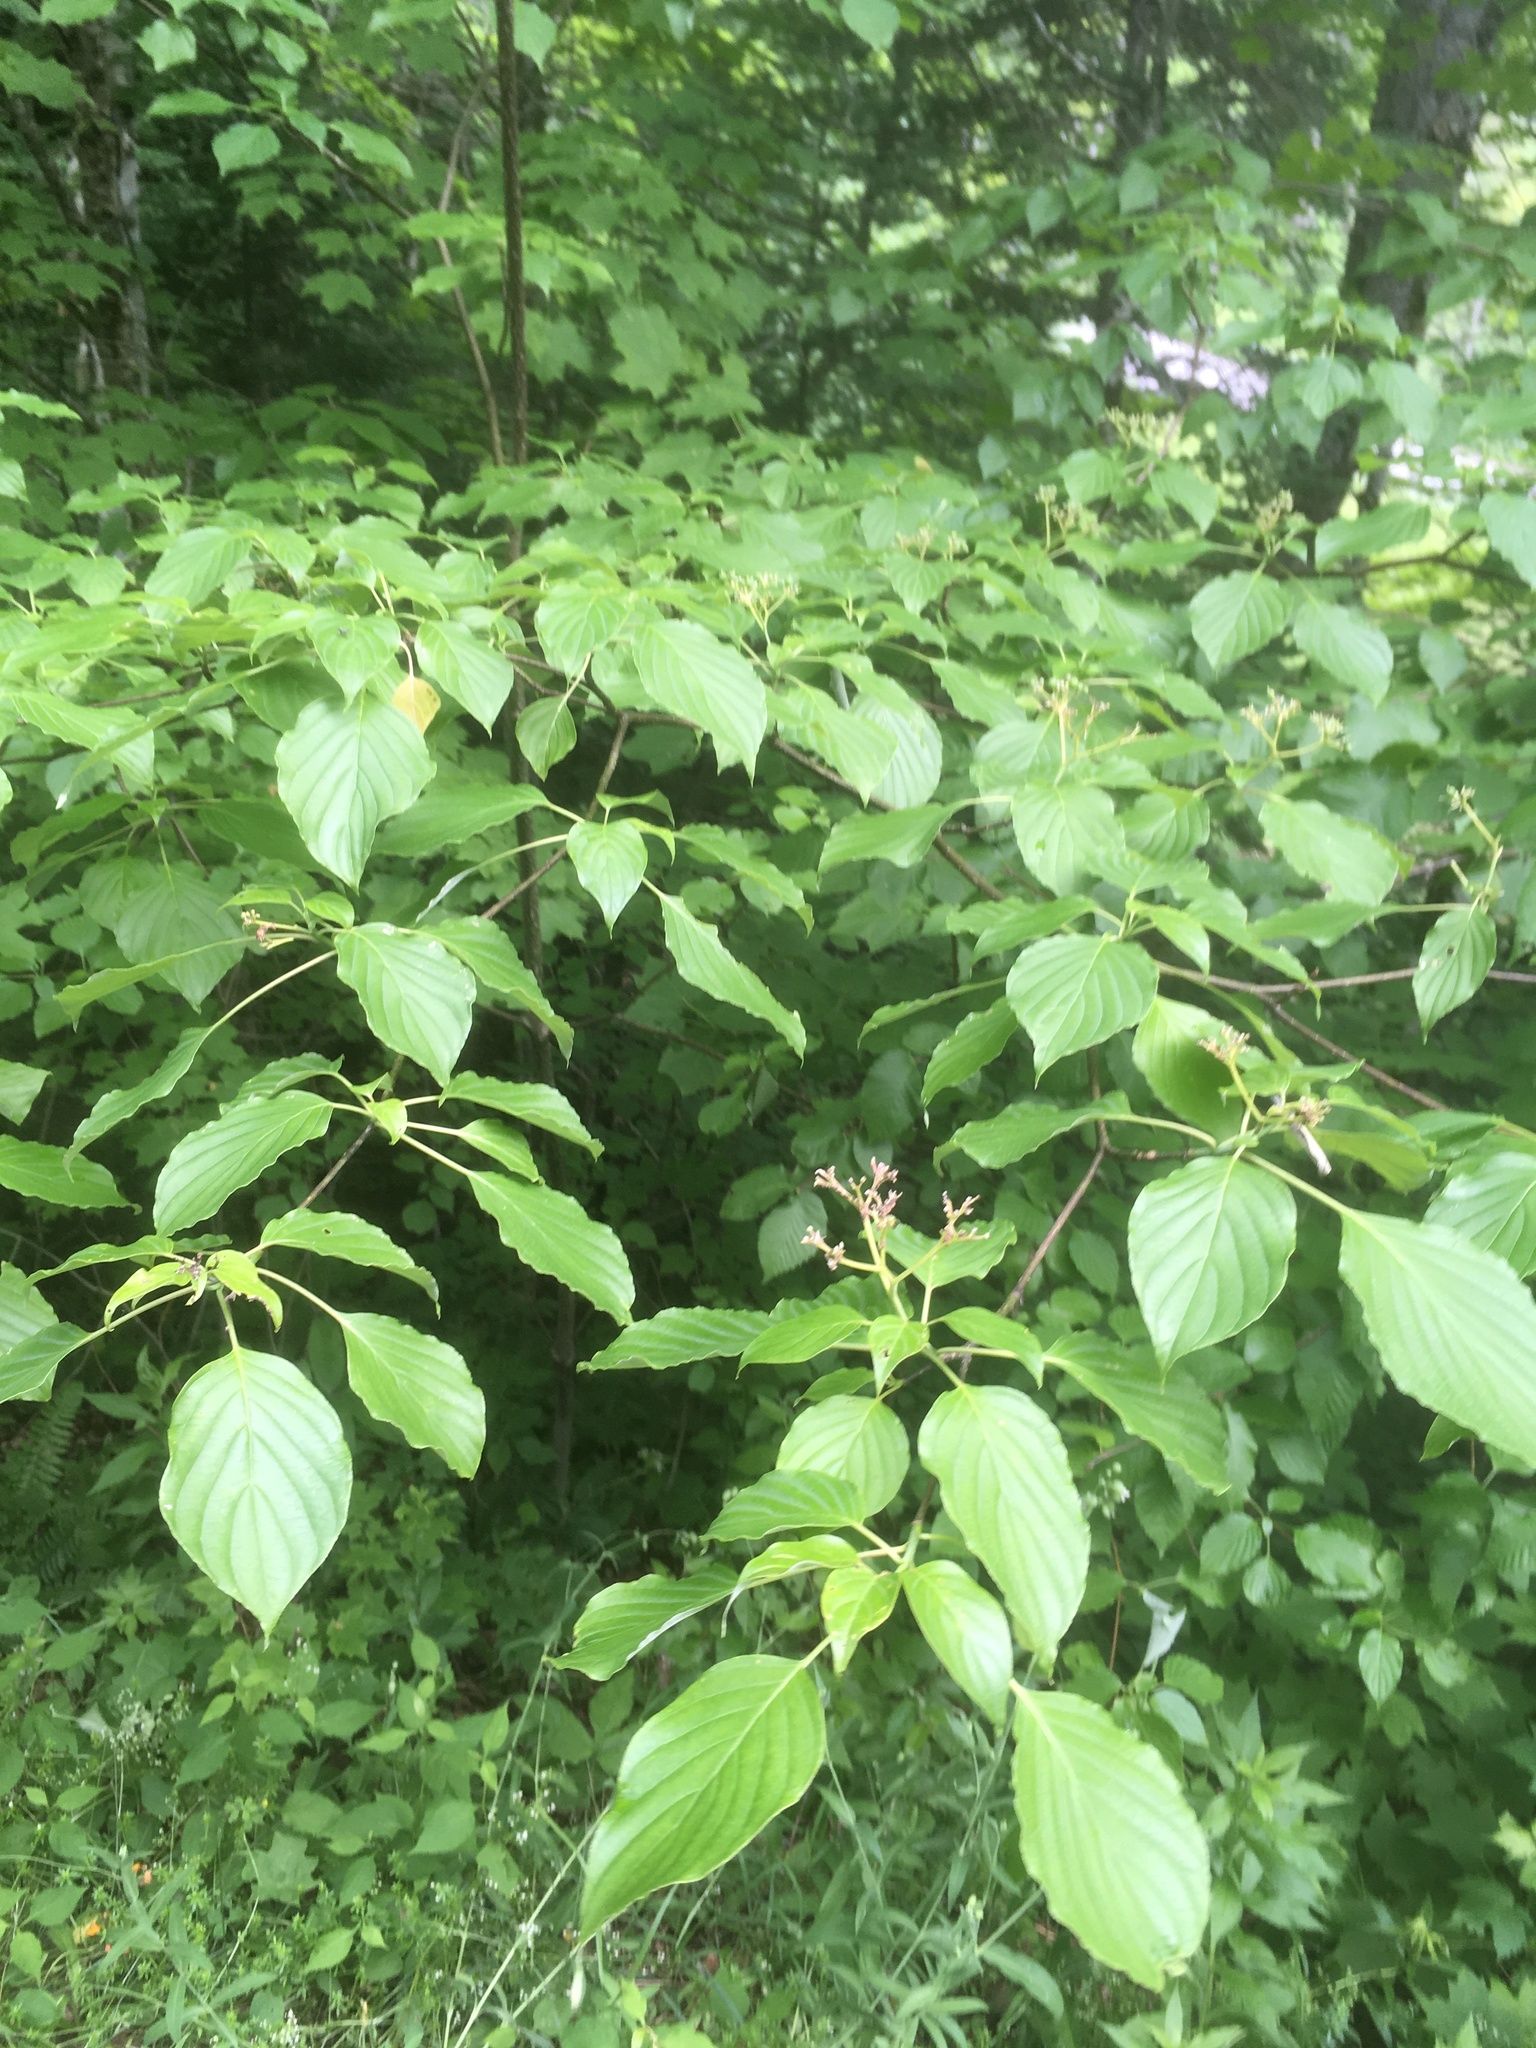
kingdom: Plantae
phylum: Tracheophyta
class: Magnoliopsida
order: Cornales
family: Cornaceae
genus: Cornus
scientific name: Cornus alternifolia
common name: Pagoda dogwood
